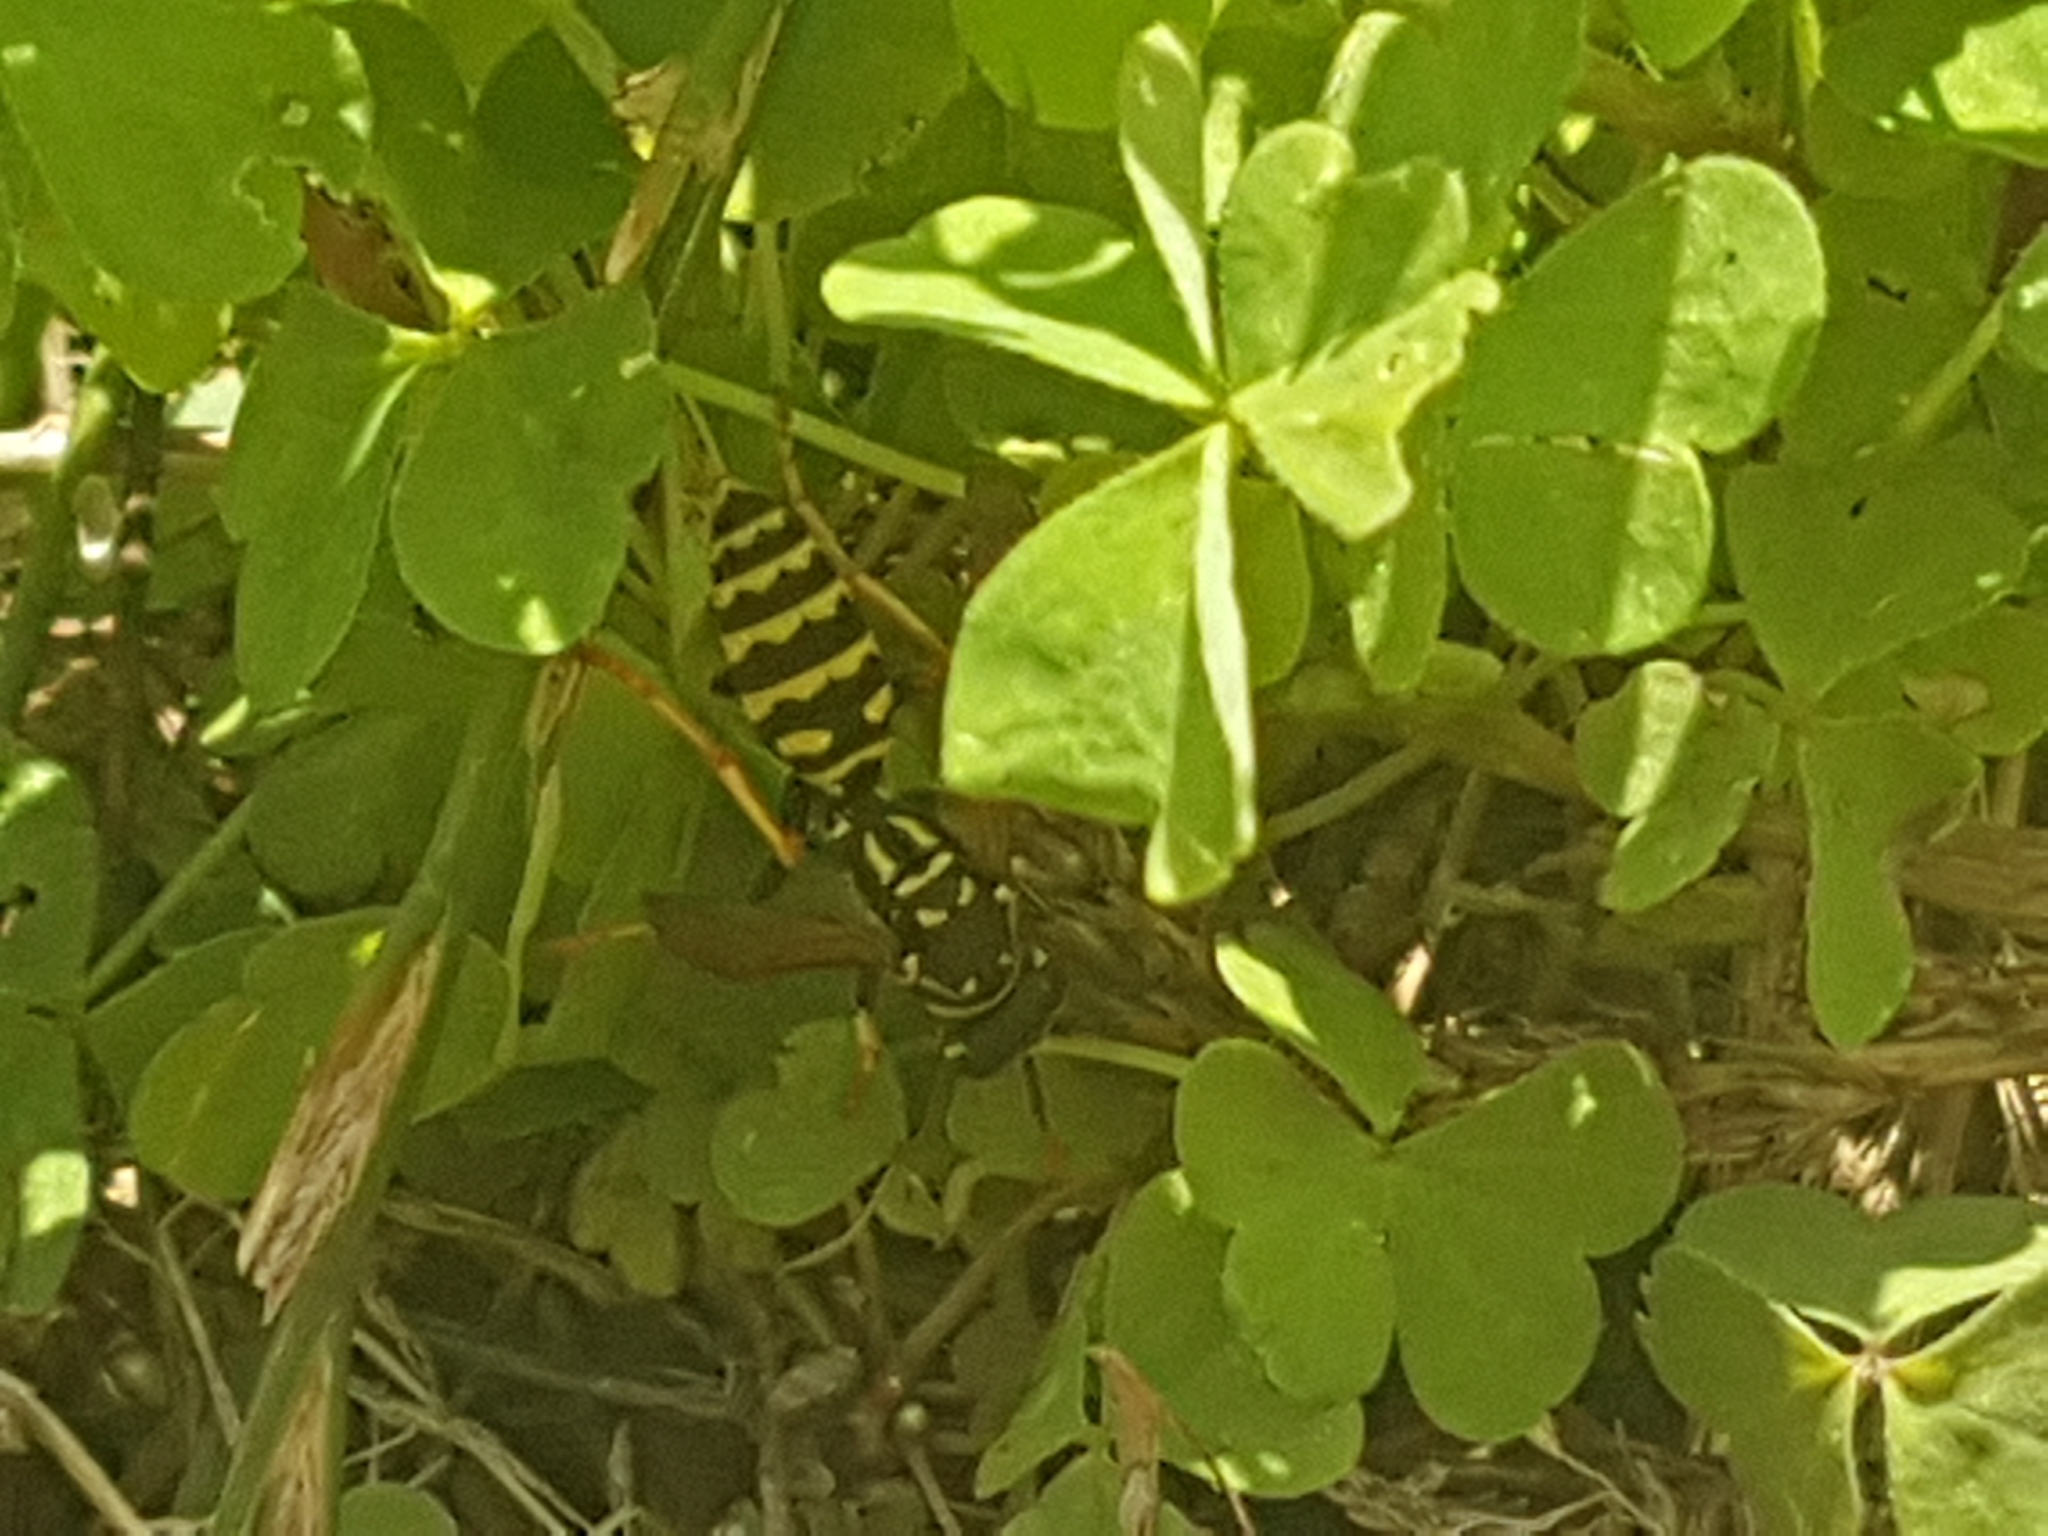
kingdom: Animalia
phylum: Arthropoda
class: Insecta
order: Hymenoptera
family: Eumenidae
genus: Polistes
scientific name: Polistes dominula
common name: Paper wasp
